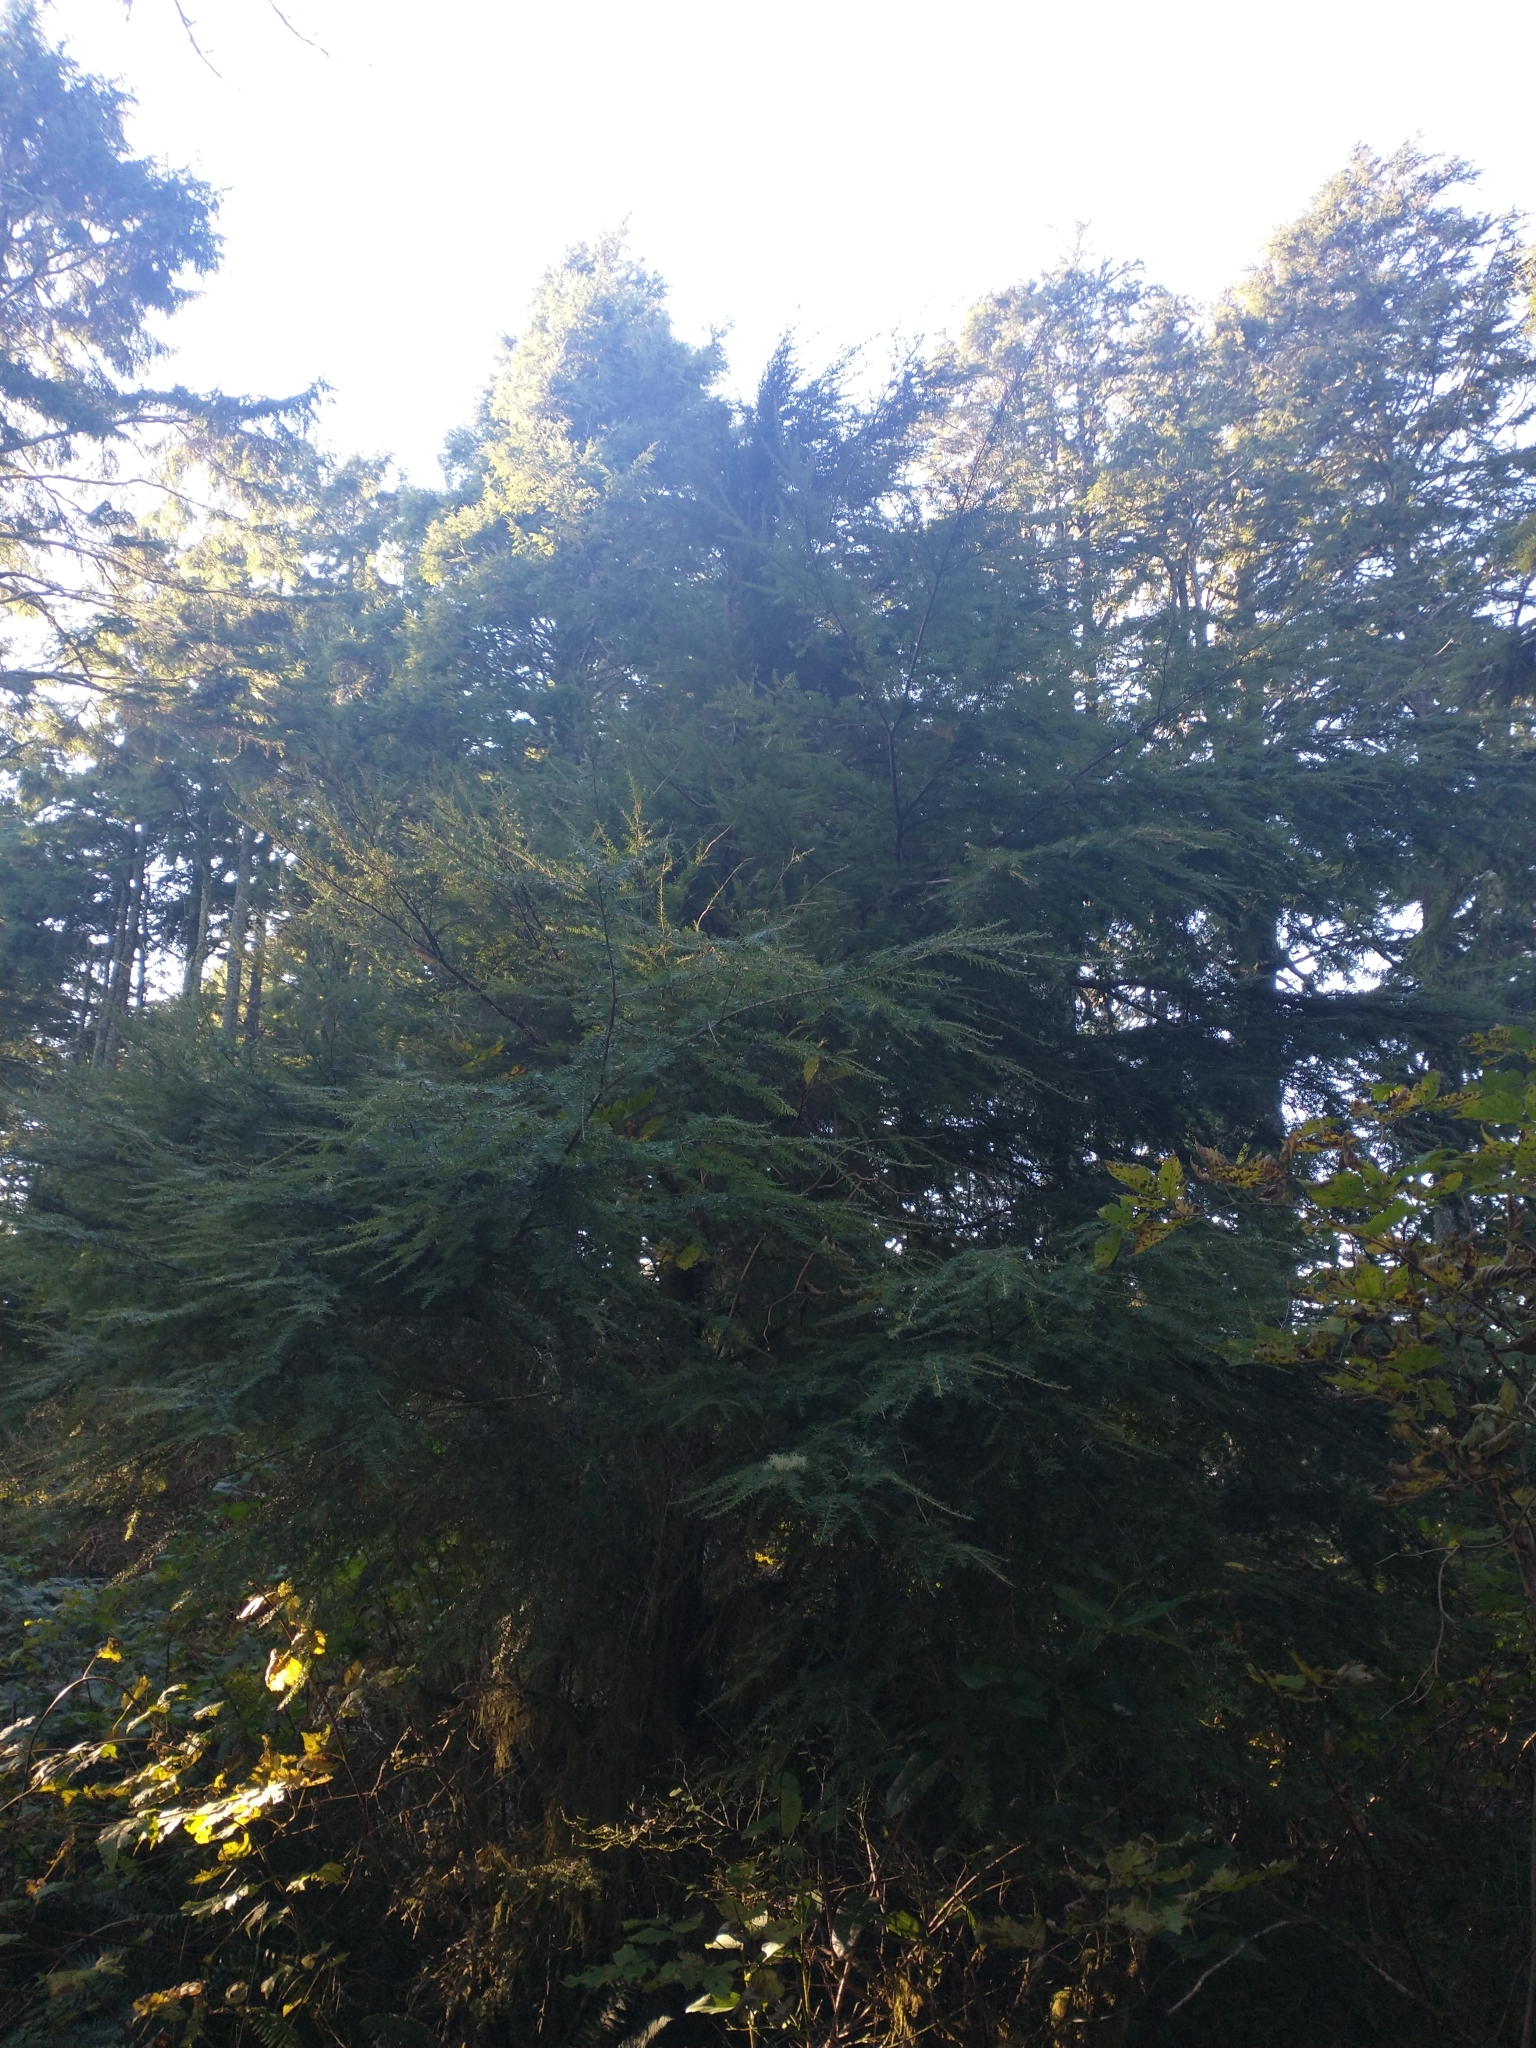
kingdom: Plantae
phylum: Tracheophyta
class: Pinopsida
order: Pinales
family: Pinaceae
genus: Tsuga
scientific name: Tsuga heterophylla
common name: Western hemlock
